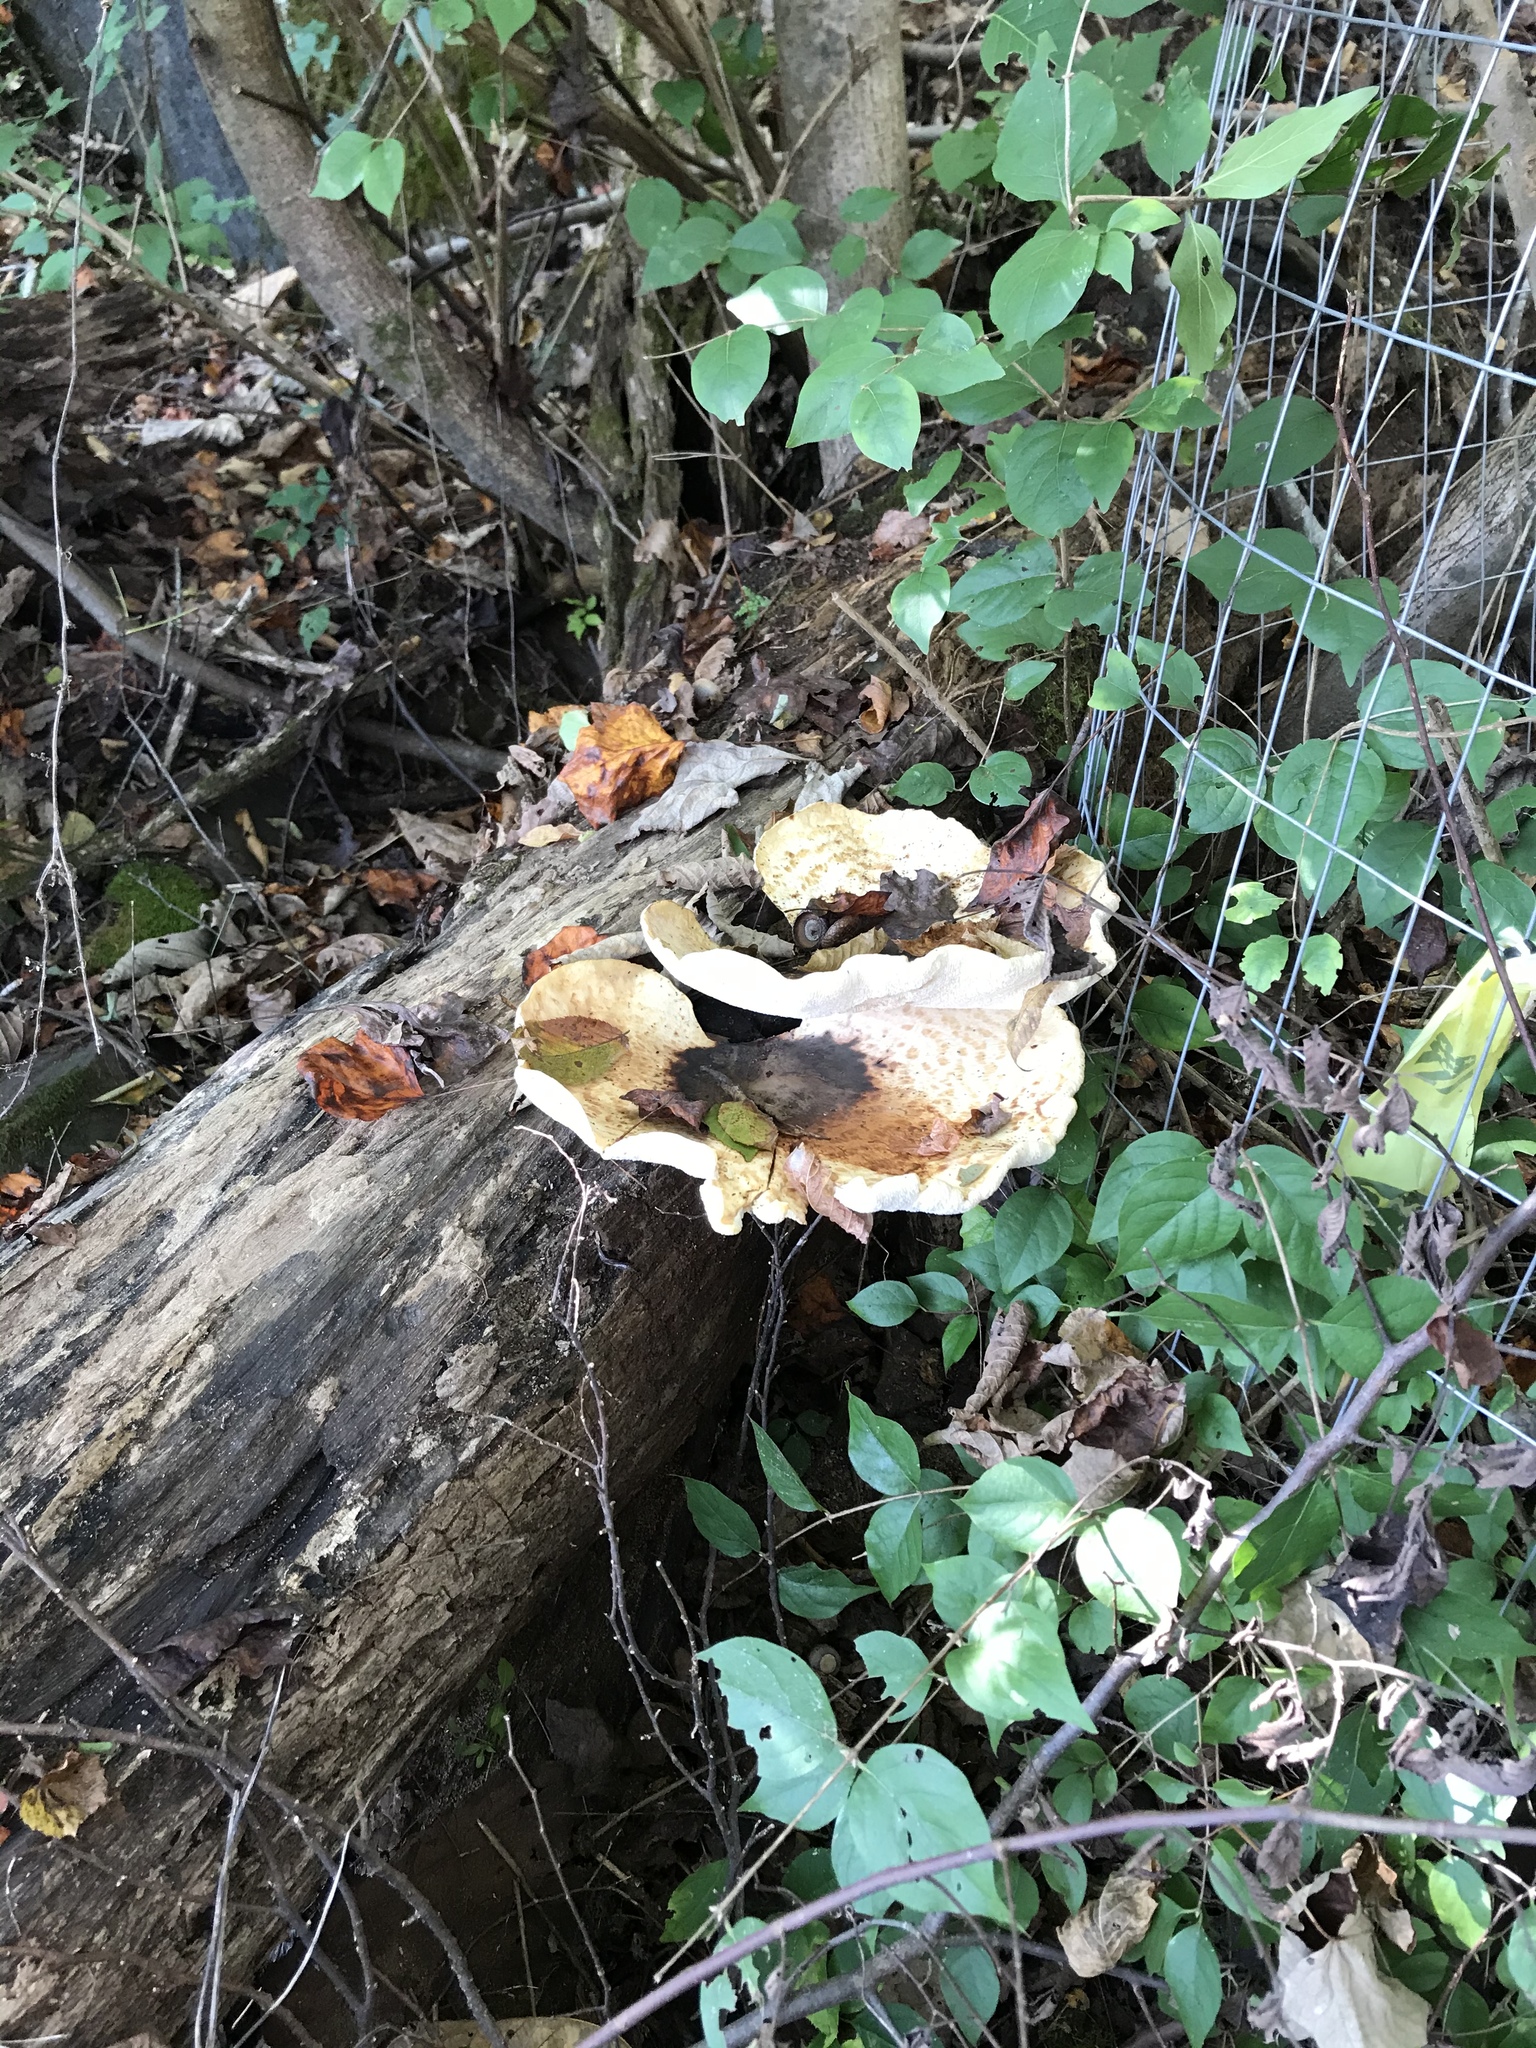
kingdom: Fungi
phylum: Basidiomycota
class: Agaricomycetes
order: Polyporales
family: Polyporaceae
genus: Cerioporus
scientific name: Cerioporus squamosus
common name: Dryad's saddle
